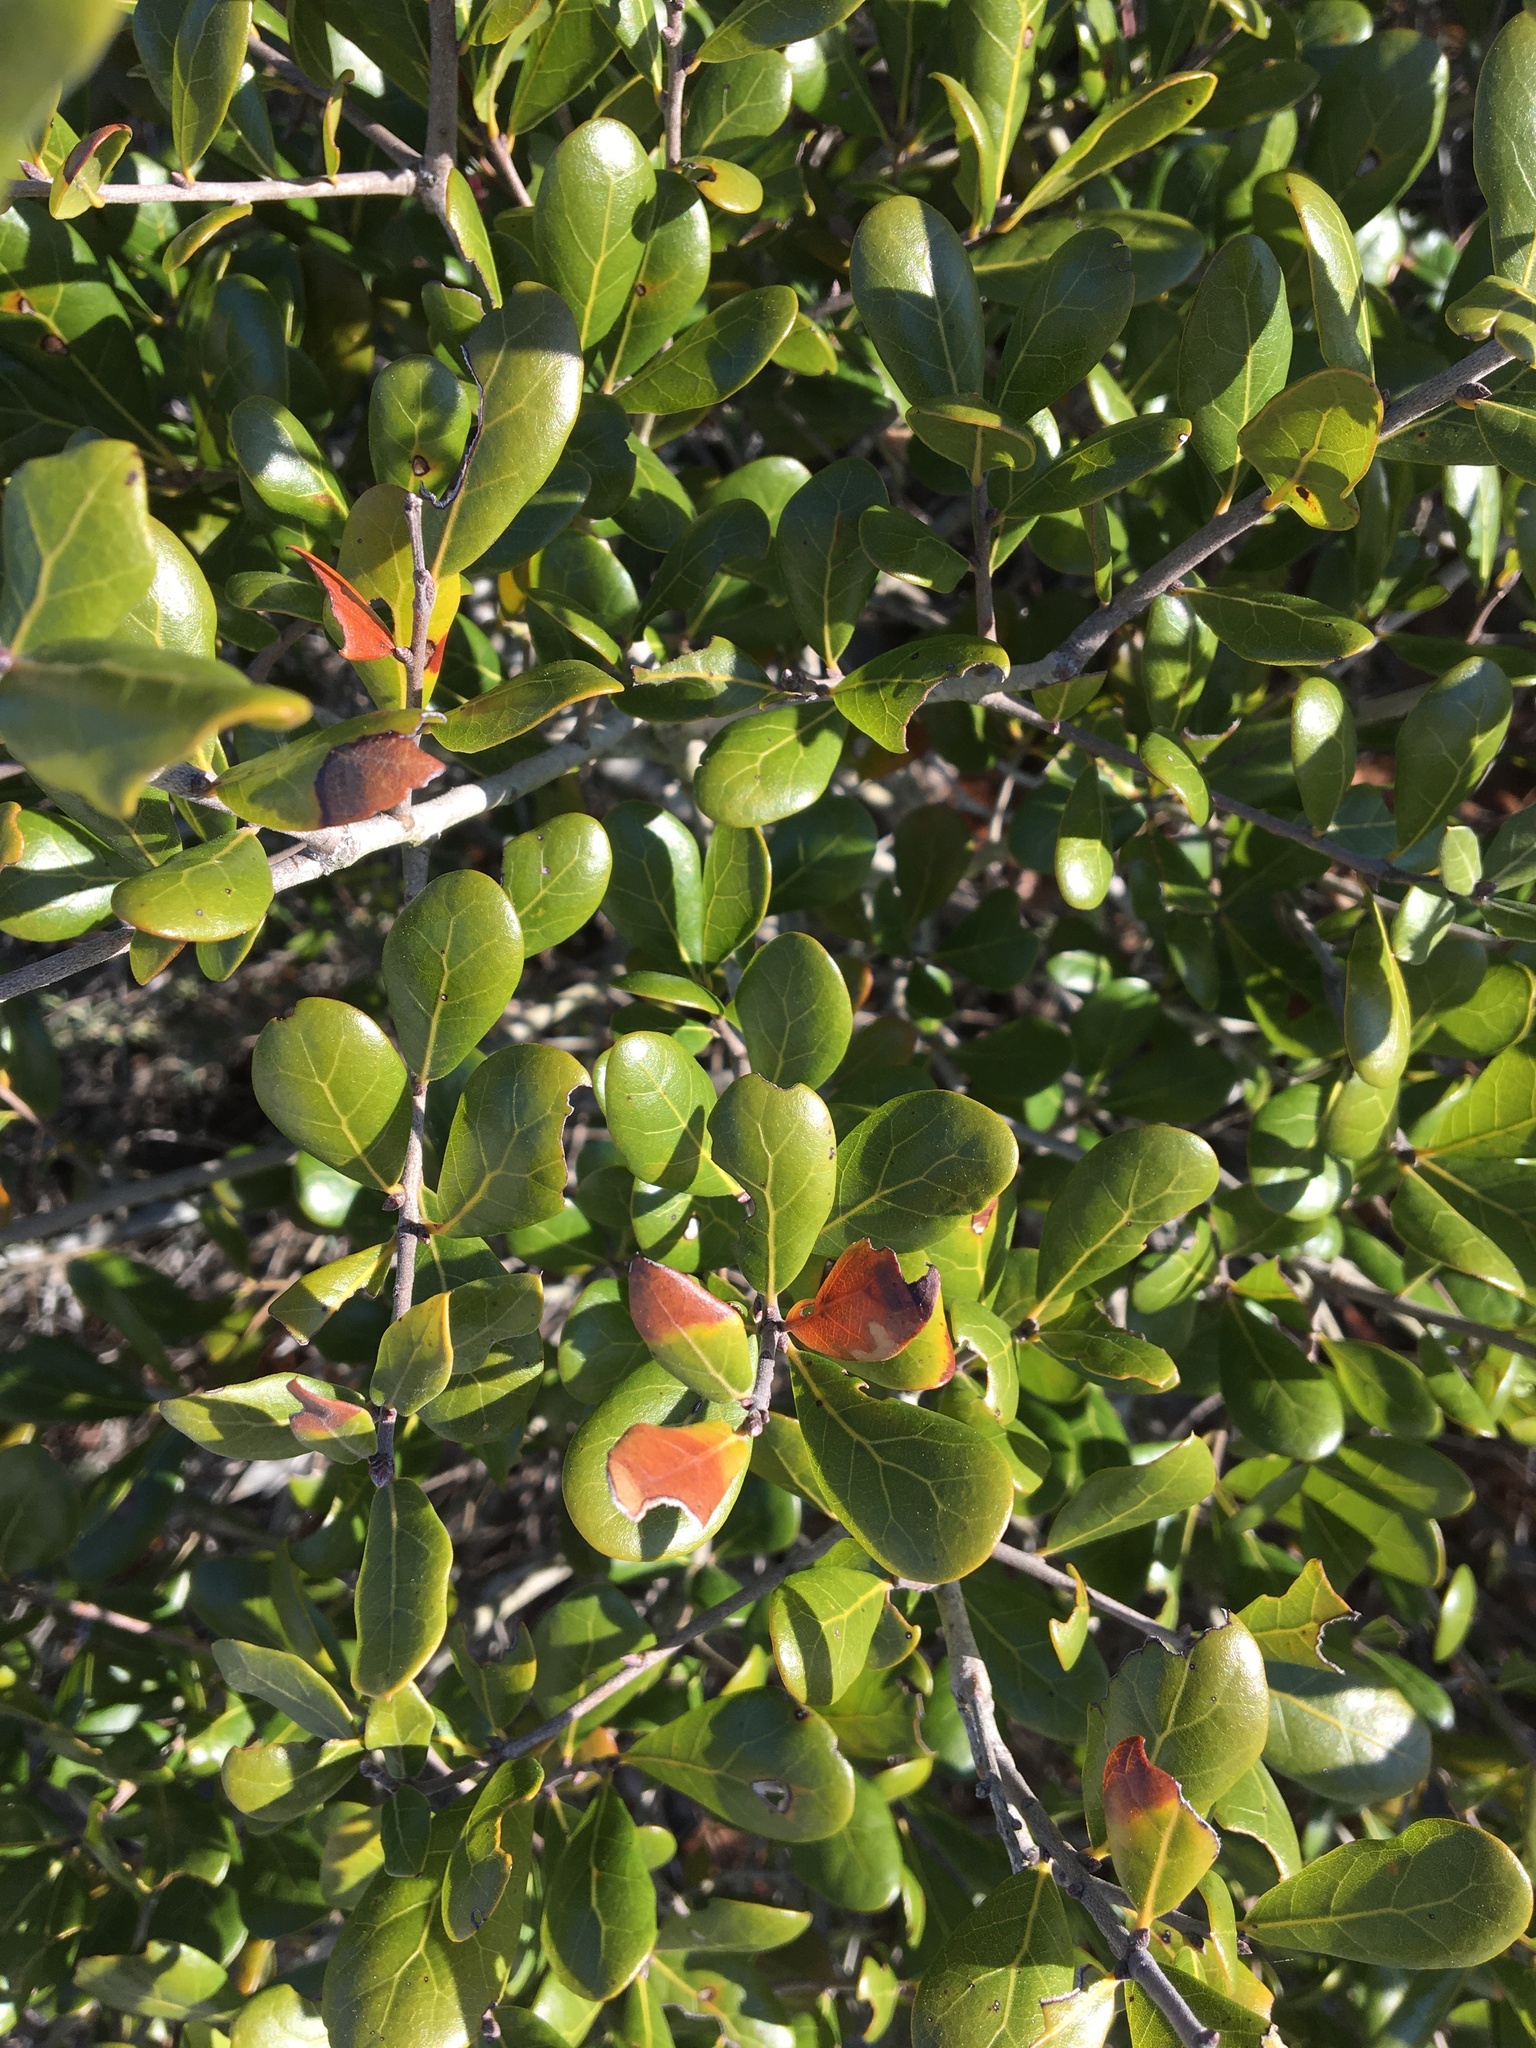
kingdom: Plantae
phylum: Tracheophyta
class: Magnoliopsida
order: Fagales
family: Fagaceae
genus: Quercus
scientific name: Quercus myrtifolia
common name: Myrtle oak
